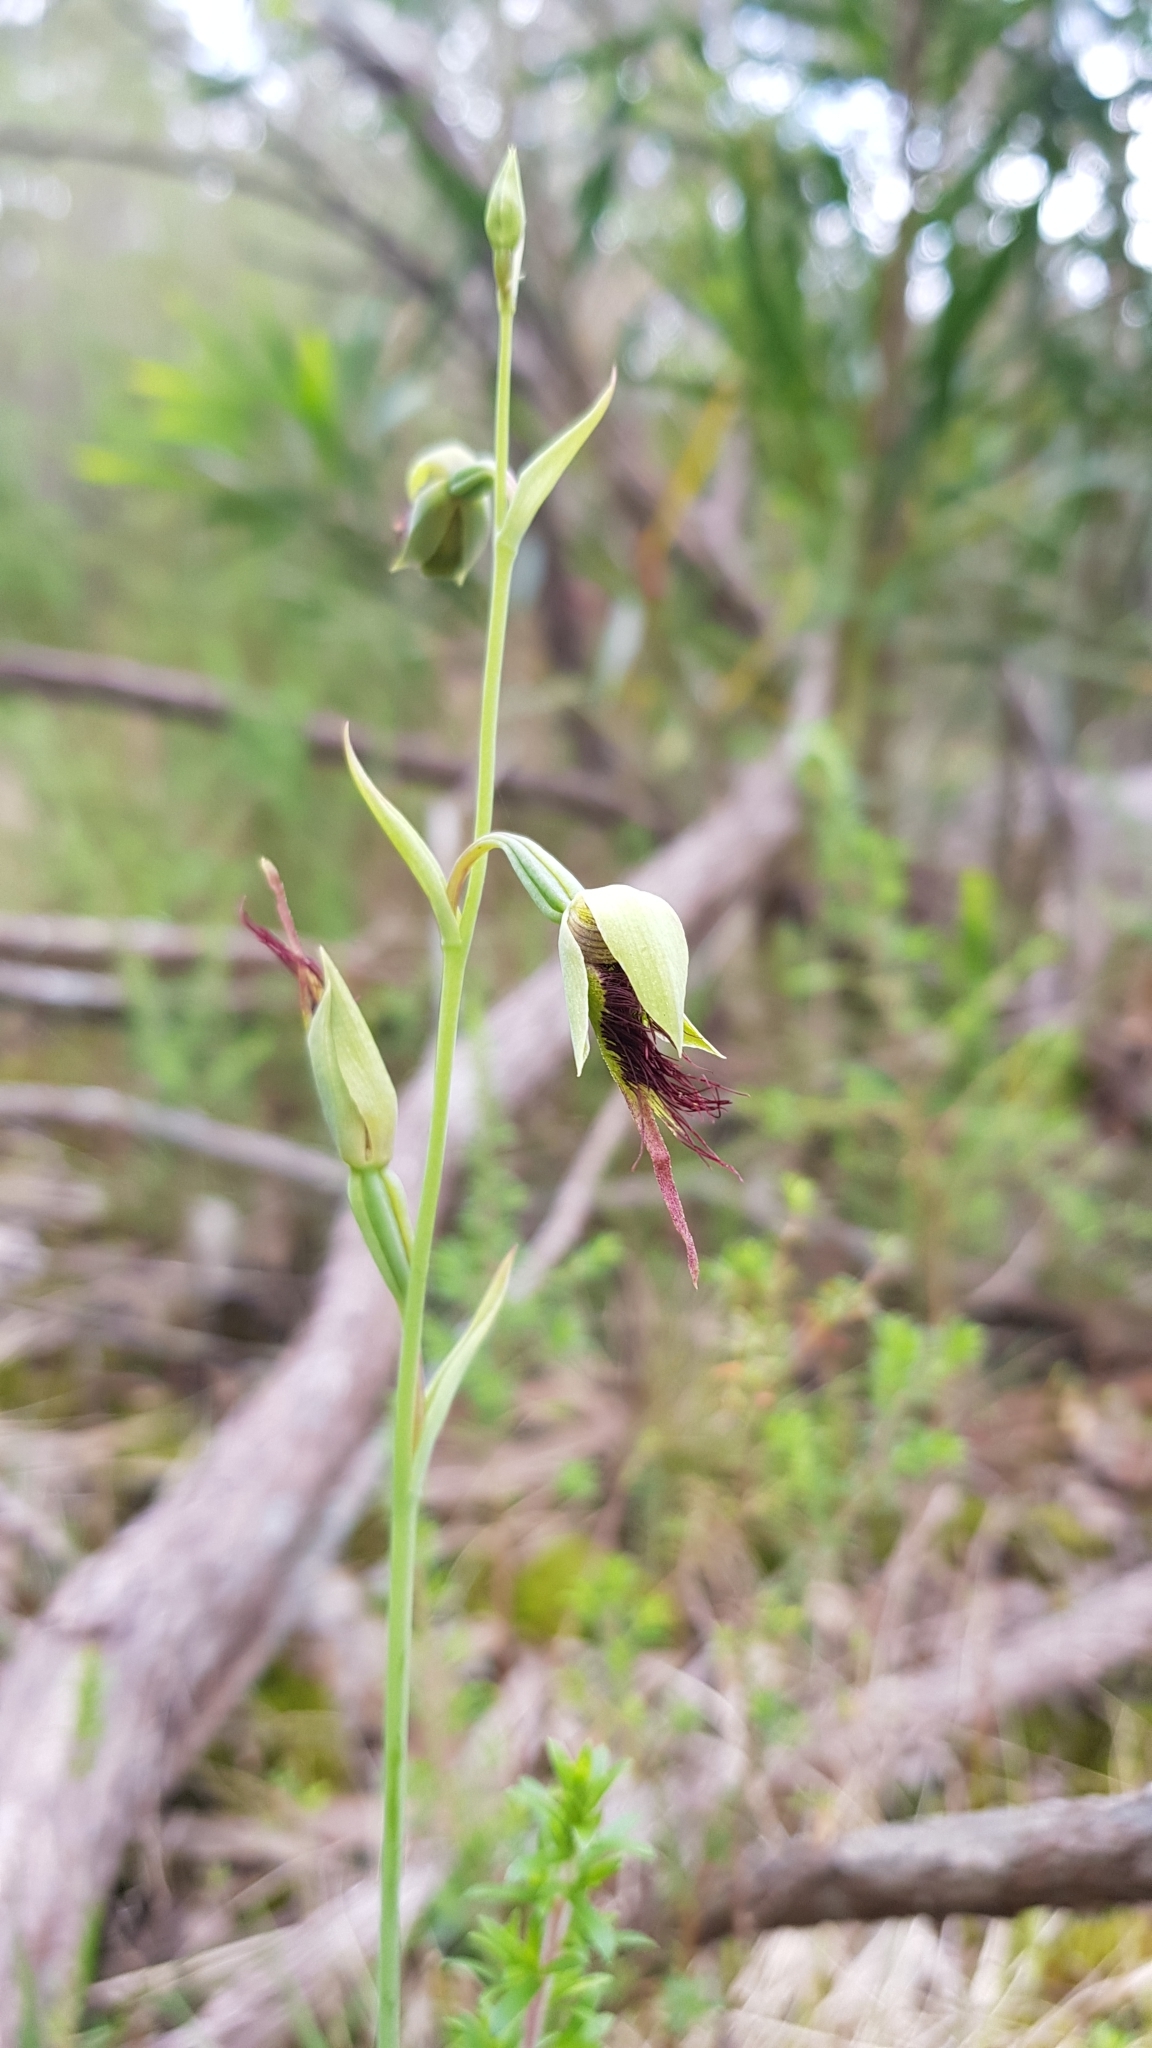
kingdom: Plantae
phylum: Tracheophyta
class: Liliopsida
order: Asparagales
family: Orchidaceae
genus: Calochilus
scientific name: Calochilus paludosus
